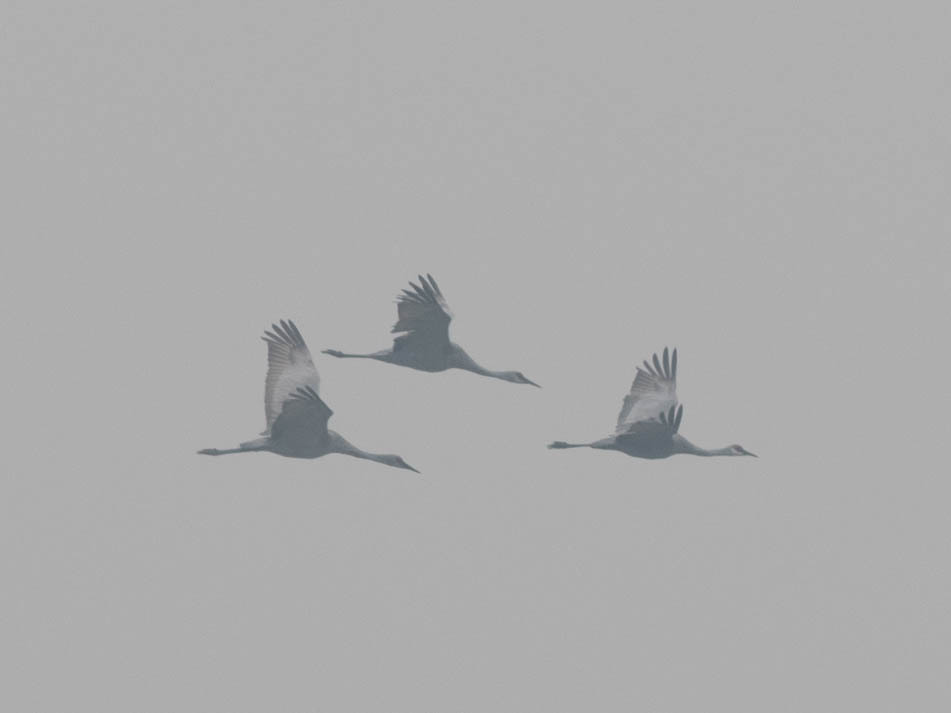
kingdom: Animalia
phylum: Chordata
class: Aves
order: Gruiformes
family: Gruidae
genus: Grus
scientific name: Grus canadensis
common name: Sandhill crane
